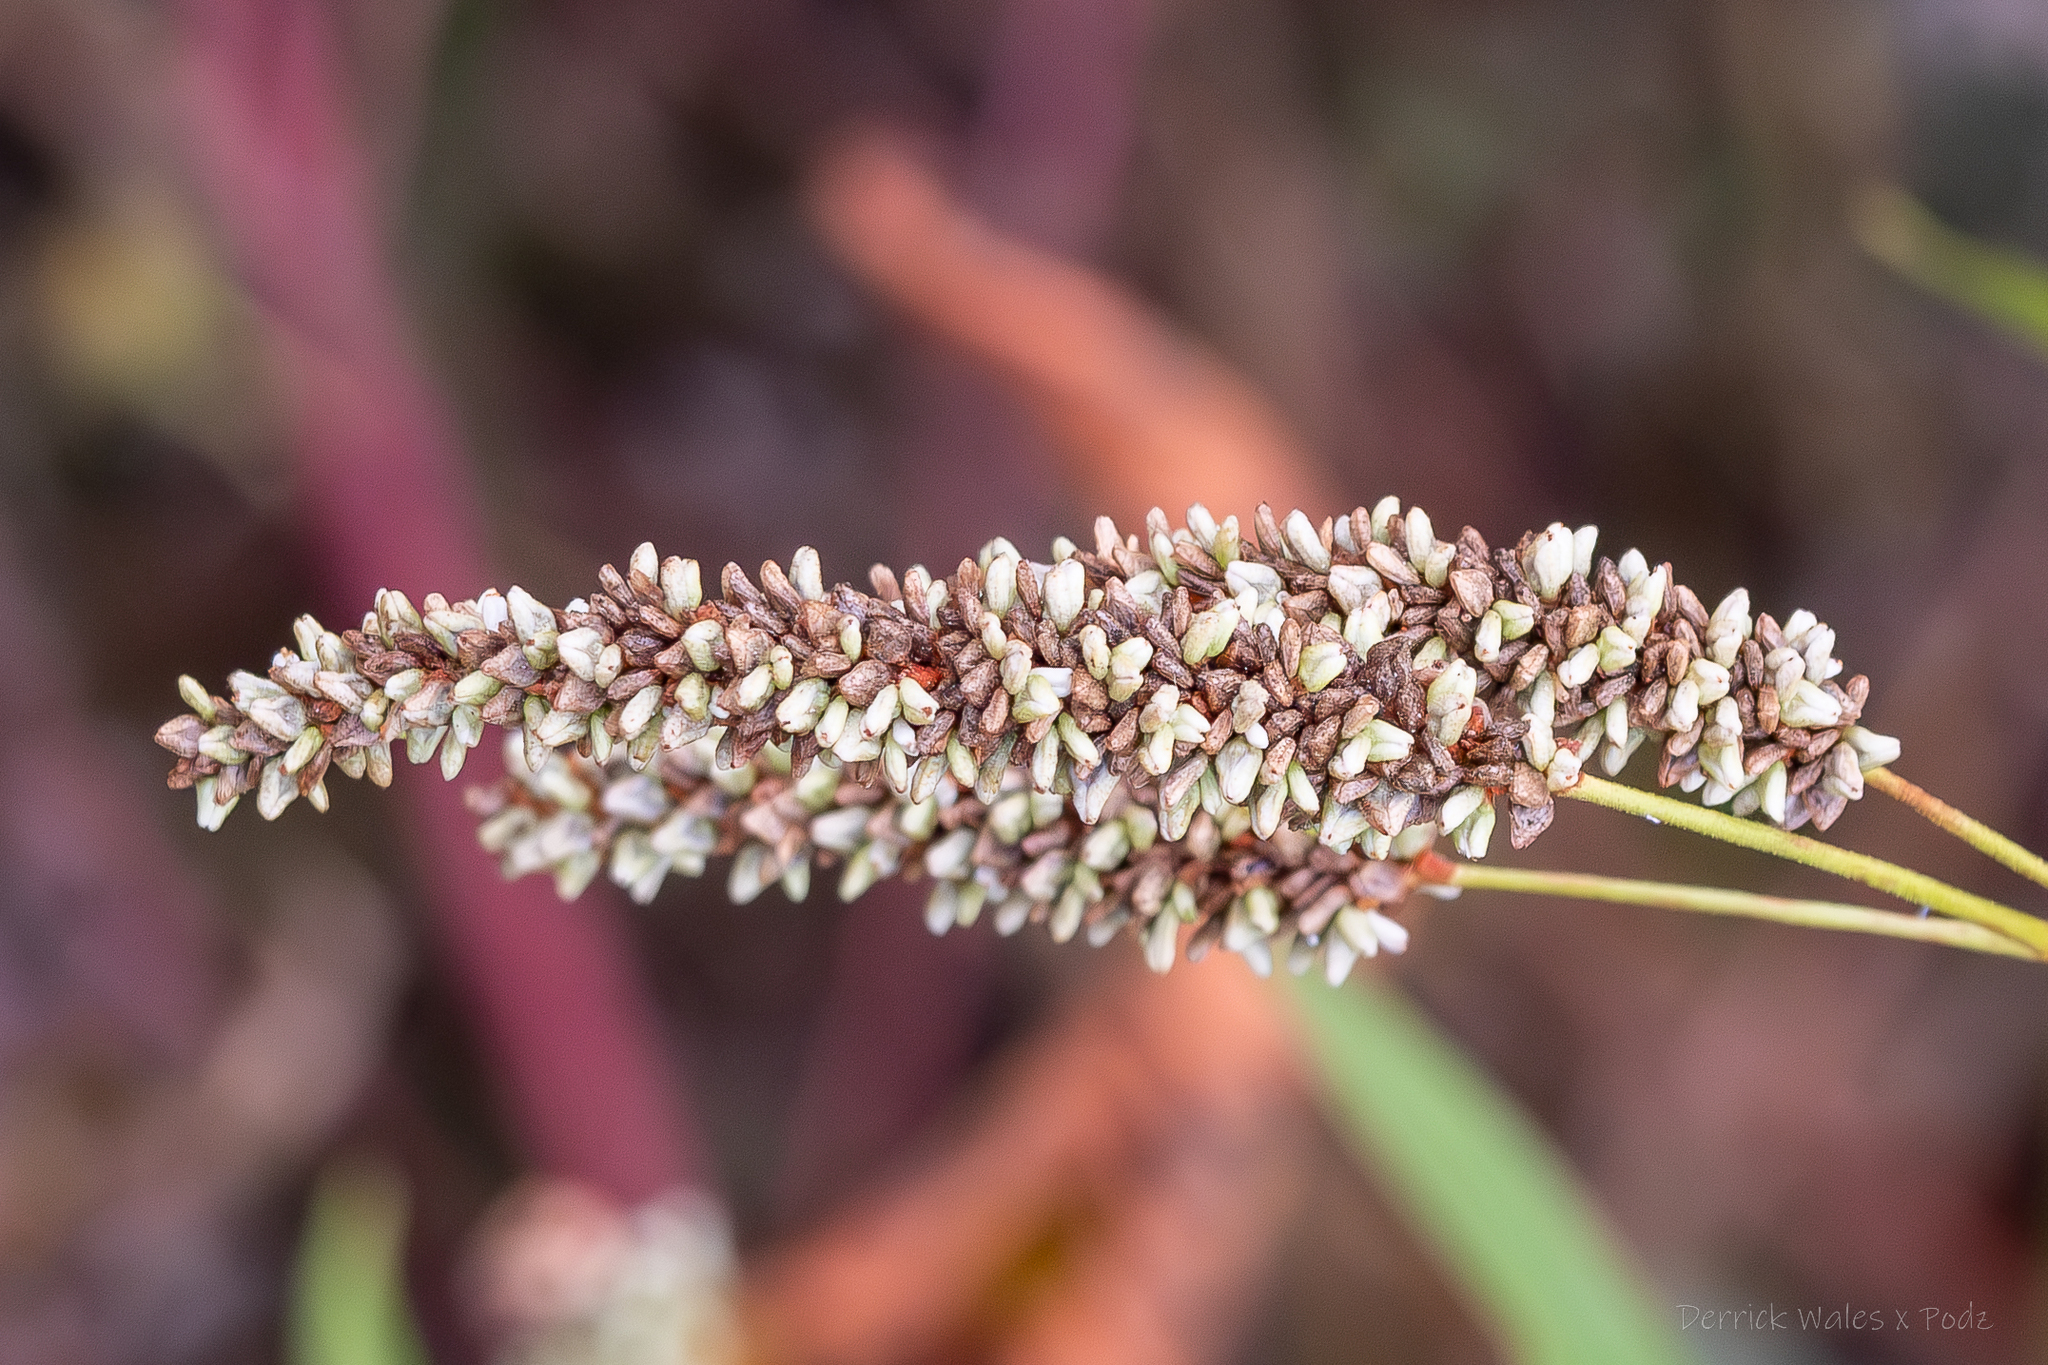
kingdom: Plantae
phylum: Tracheophyta
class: Magnoliopsida
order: Caryophyllales
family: Polygonaceae
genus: Persicaria
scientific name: Persicaria lapathifolia
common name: Curlytop knotweed
